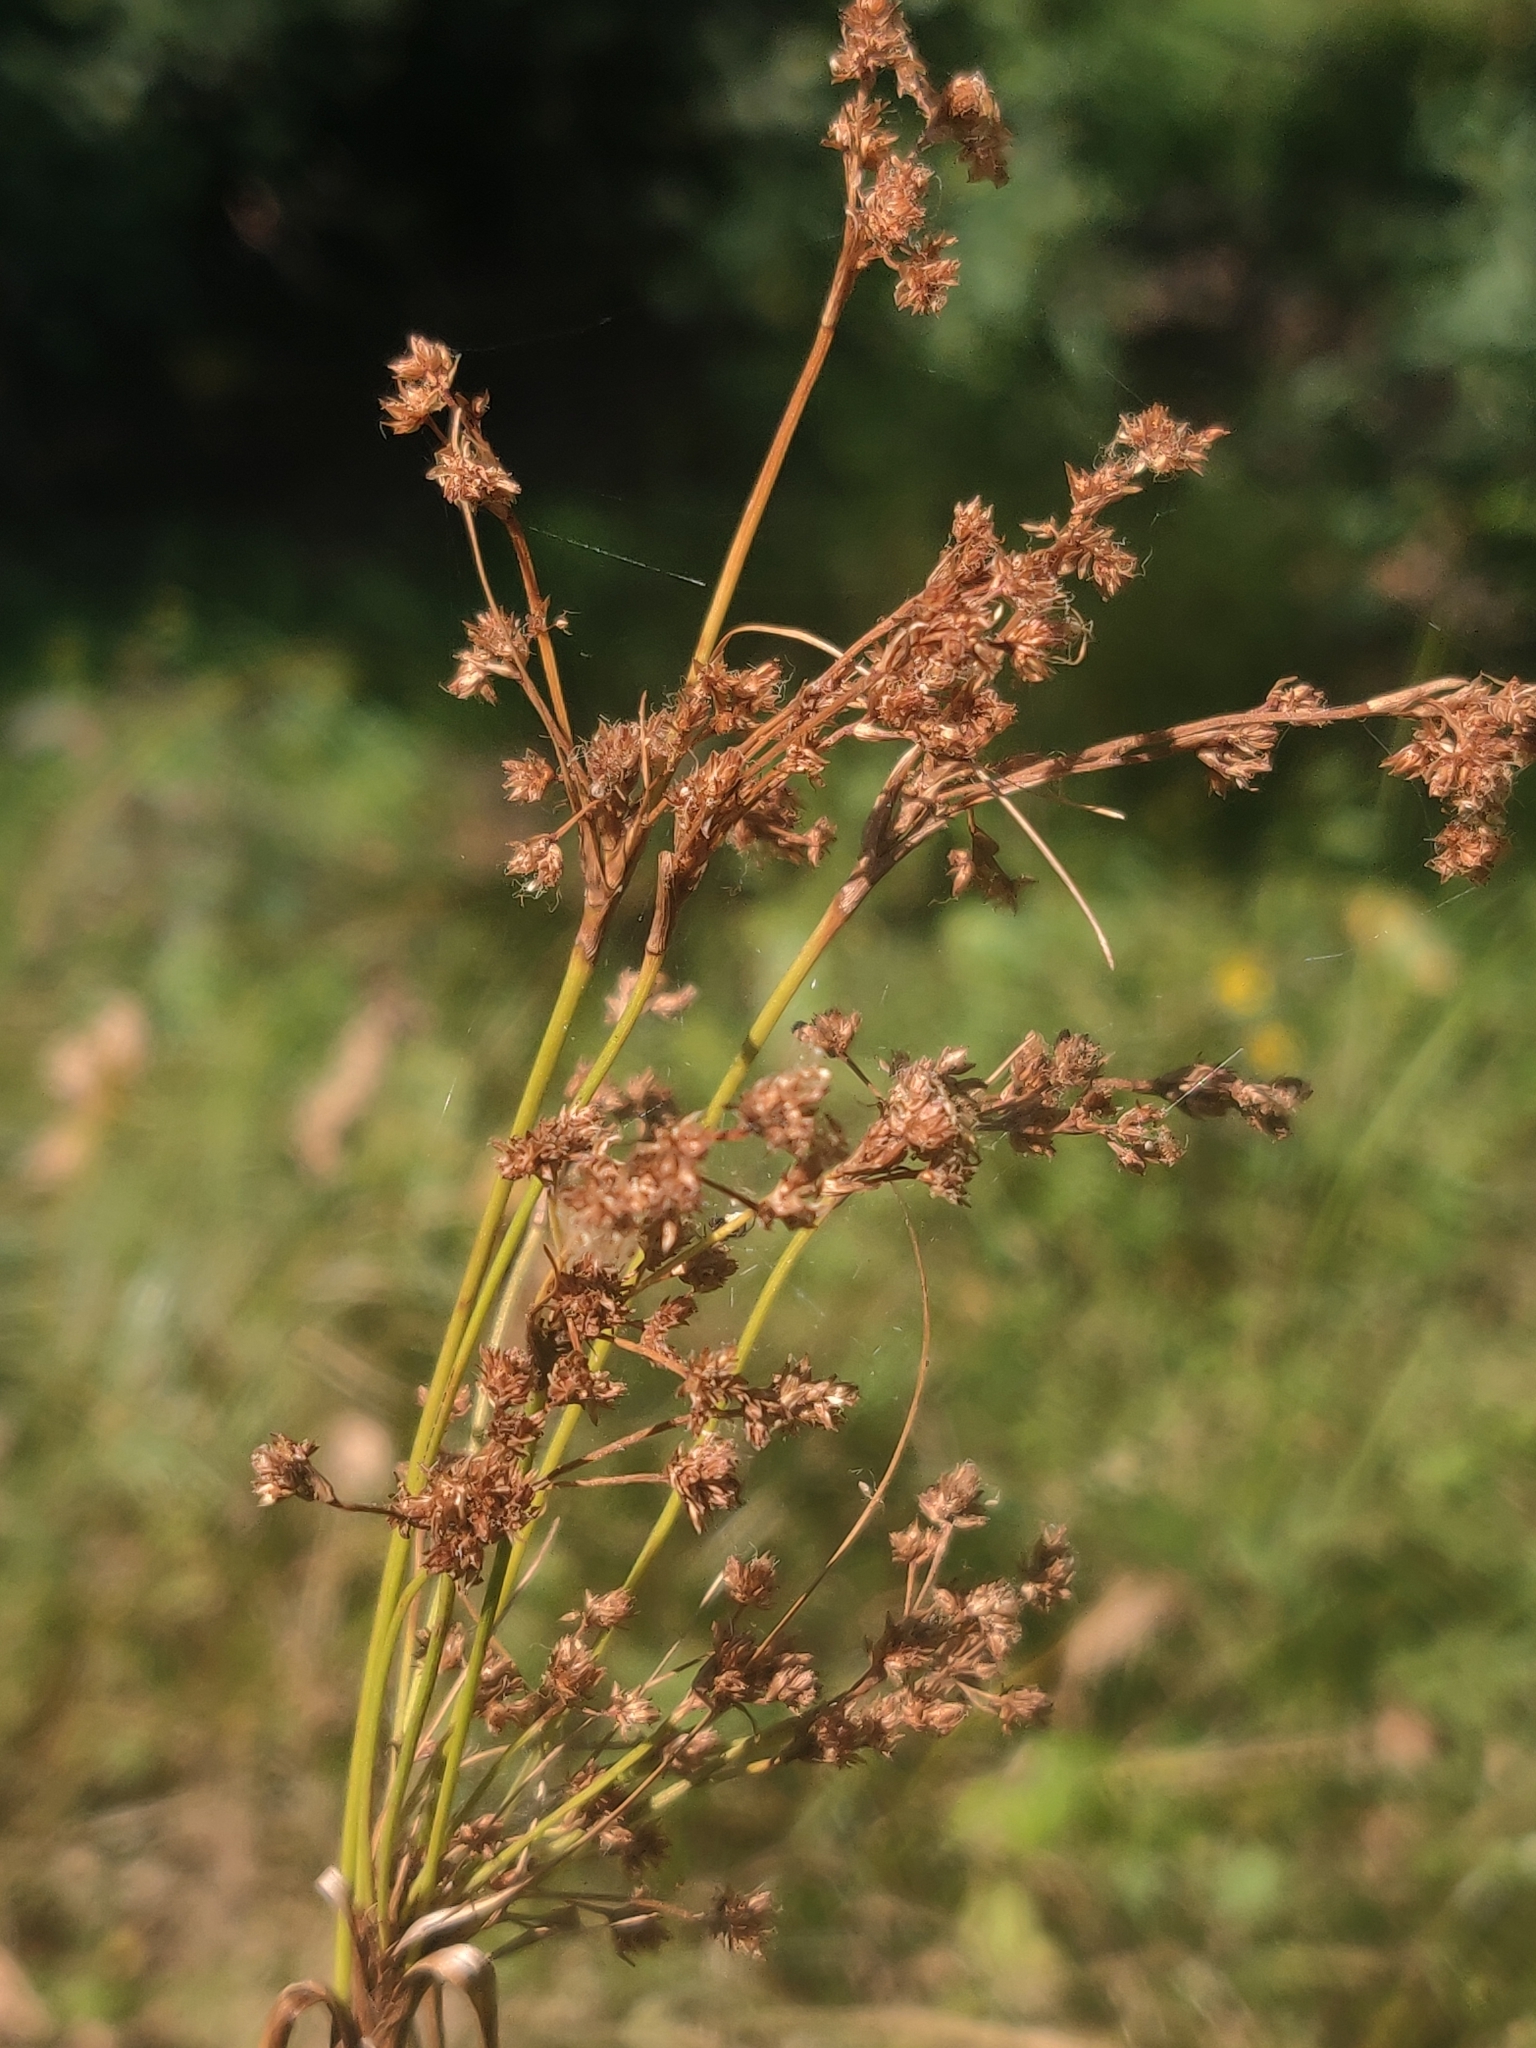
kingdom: Plantae
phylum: Tracheophyta
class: Liliopsida
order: Poales
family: Cyperaceae
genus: Scirpus
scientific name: Scirpus cyperinus
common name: Black-sheathed bulrush
